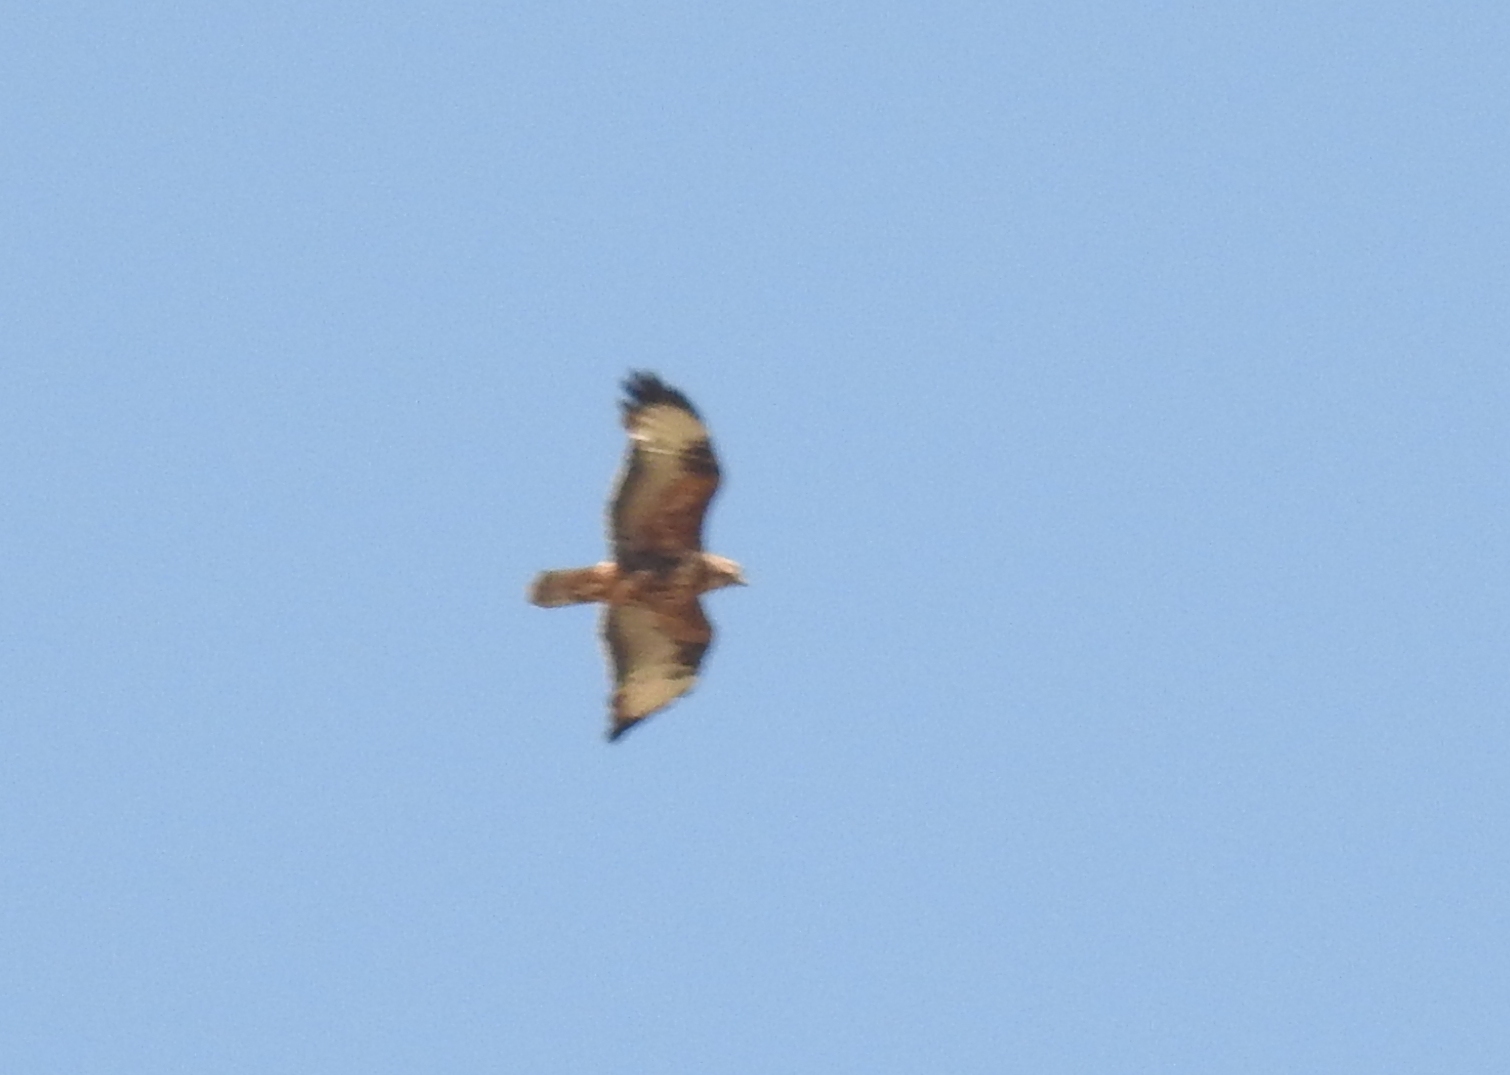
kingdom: Animalia
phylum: Chordata
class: Aves
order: Accipitriformes
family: Accipitridae
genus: Buteo
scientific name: Buteo rufinus
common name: Long-legged buzzard
